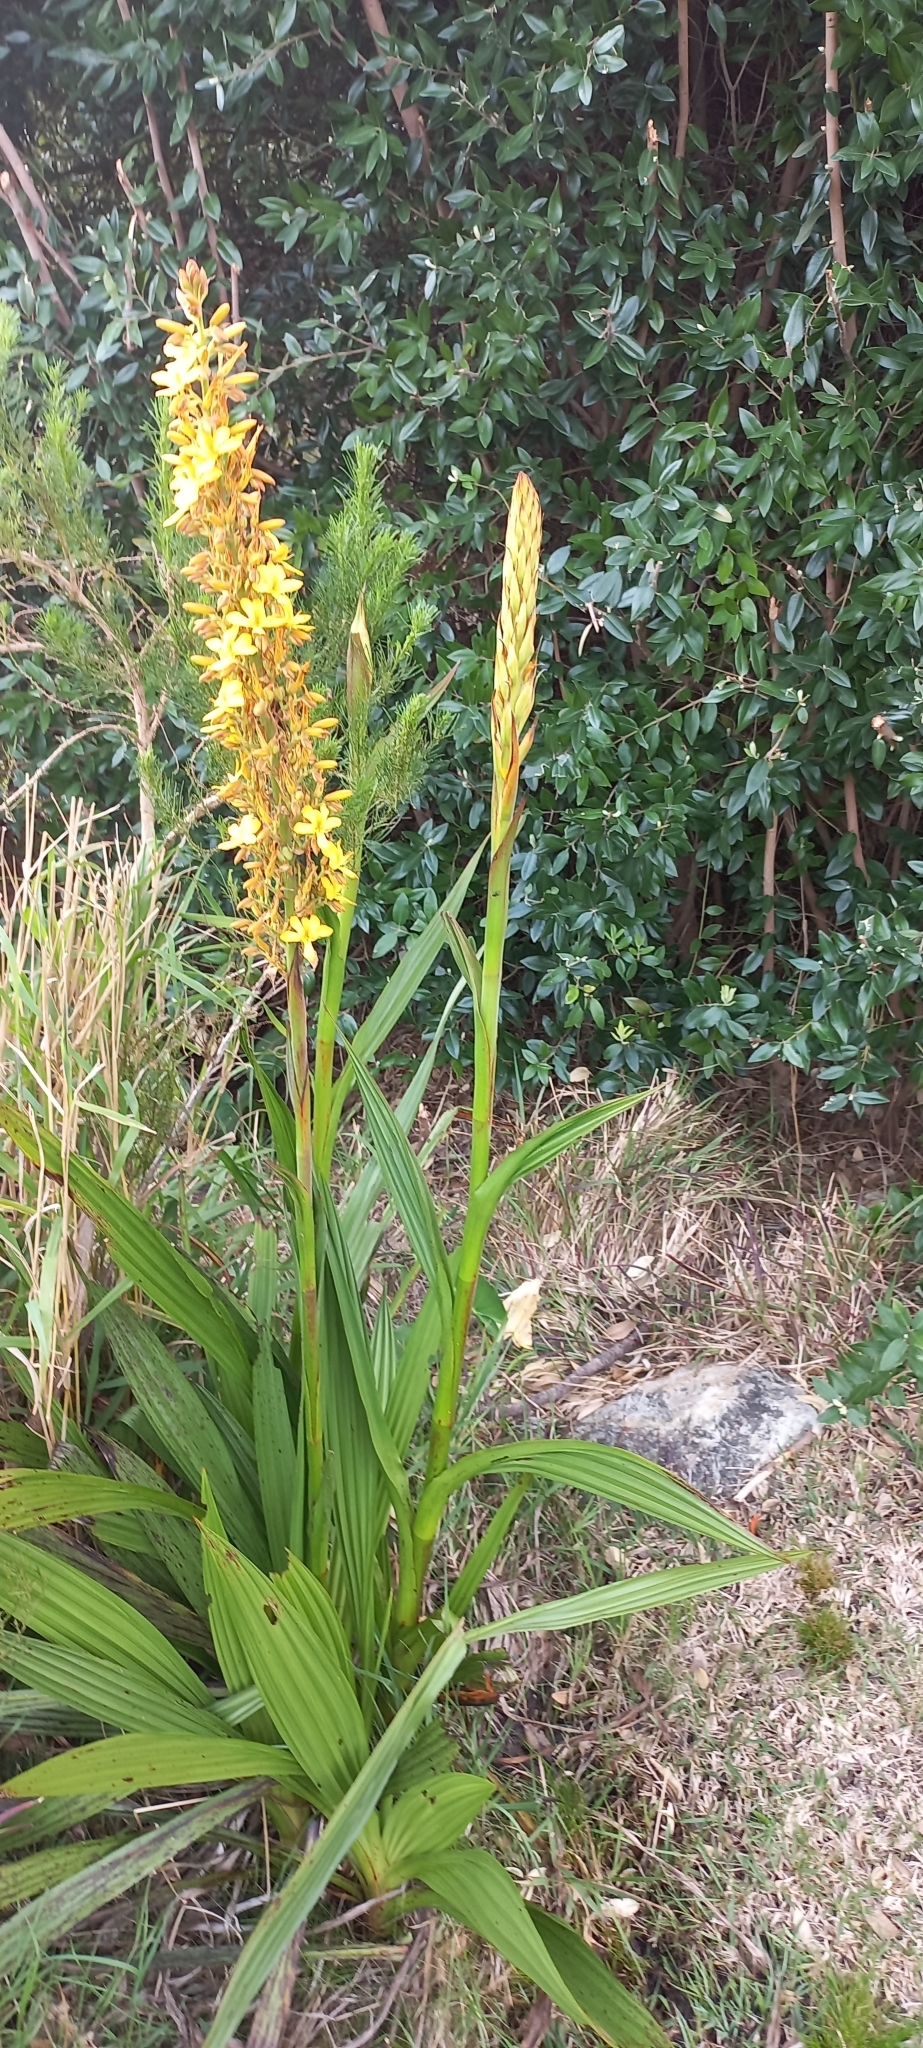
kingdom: Plantae
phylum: Tracheophyta
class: Liliopsida
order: Commelinales
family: Haemodoraceae
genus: Wachendorfia
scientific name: Wachendorfia thyrsiflora
